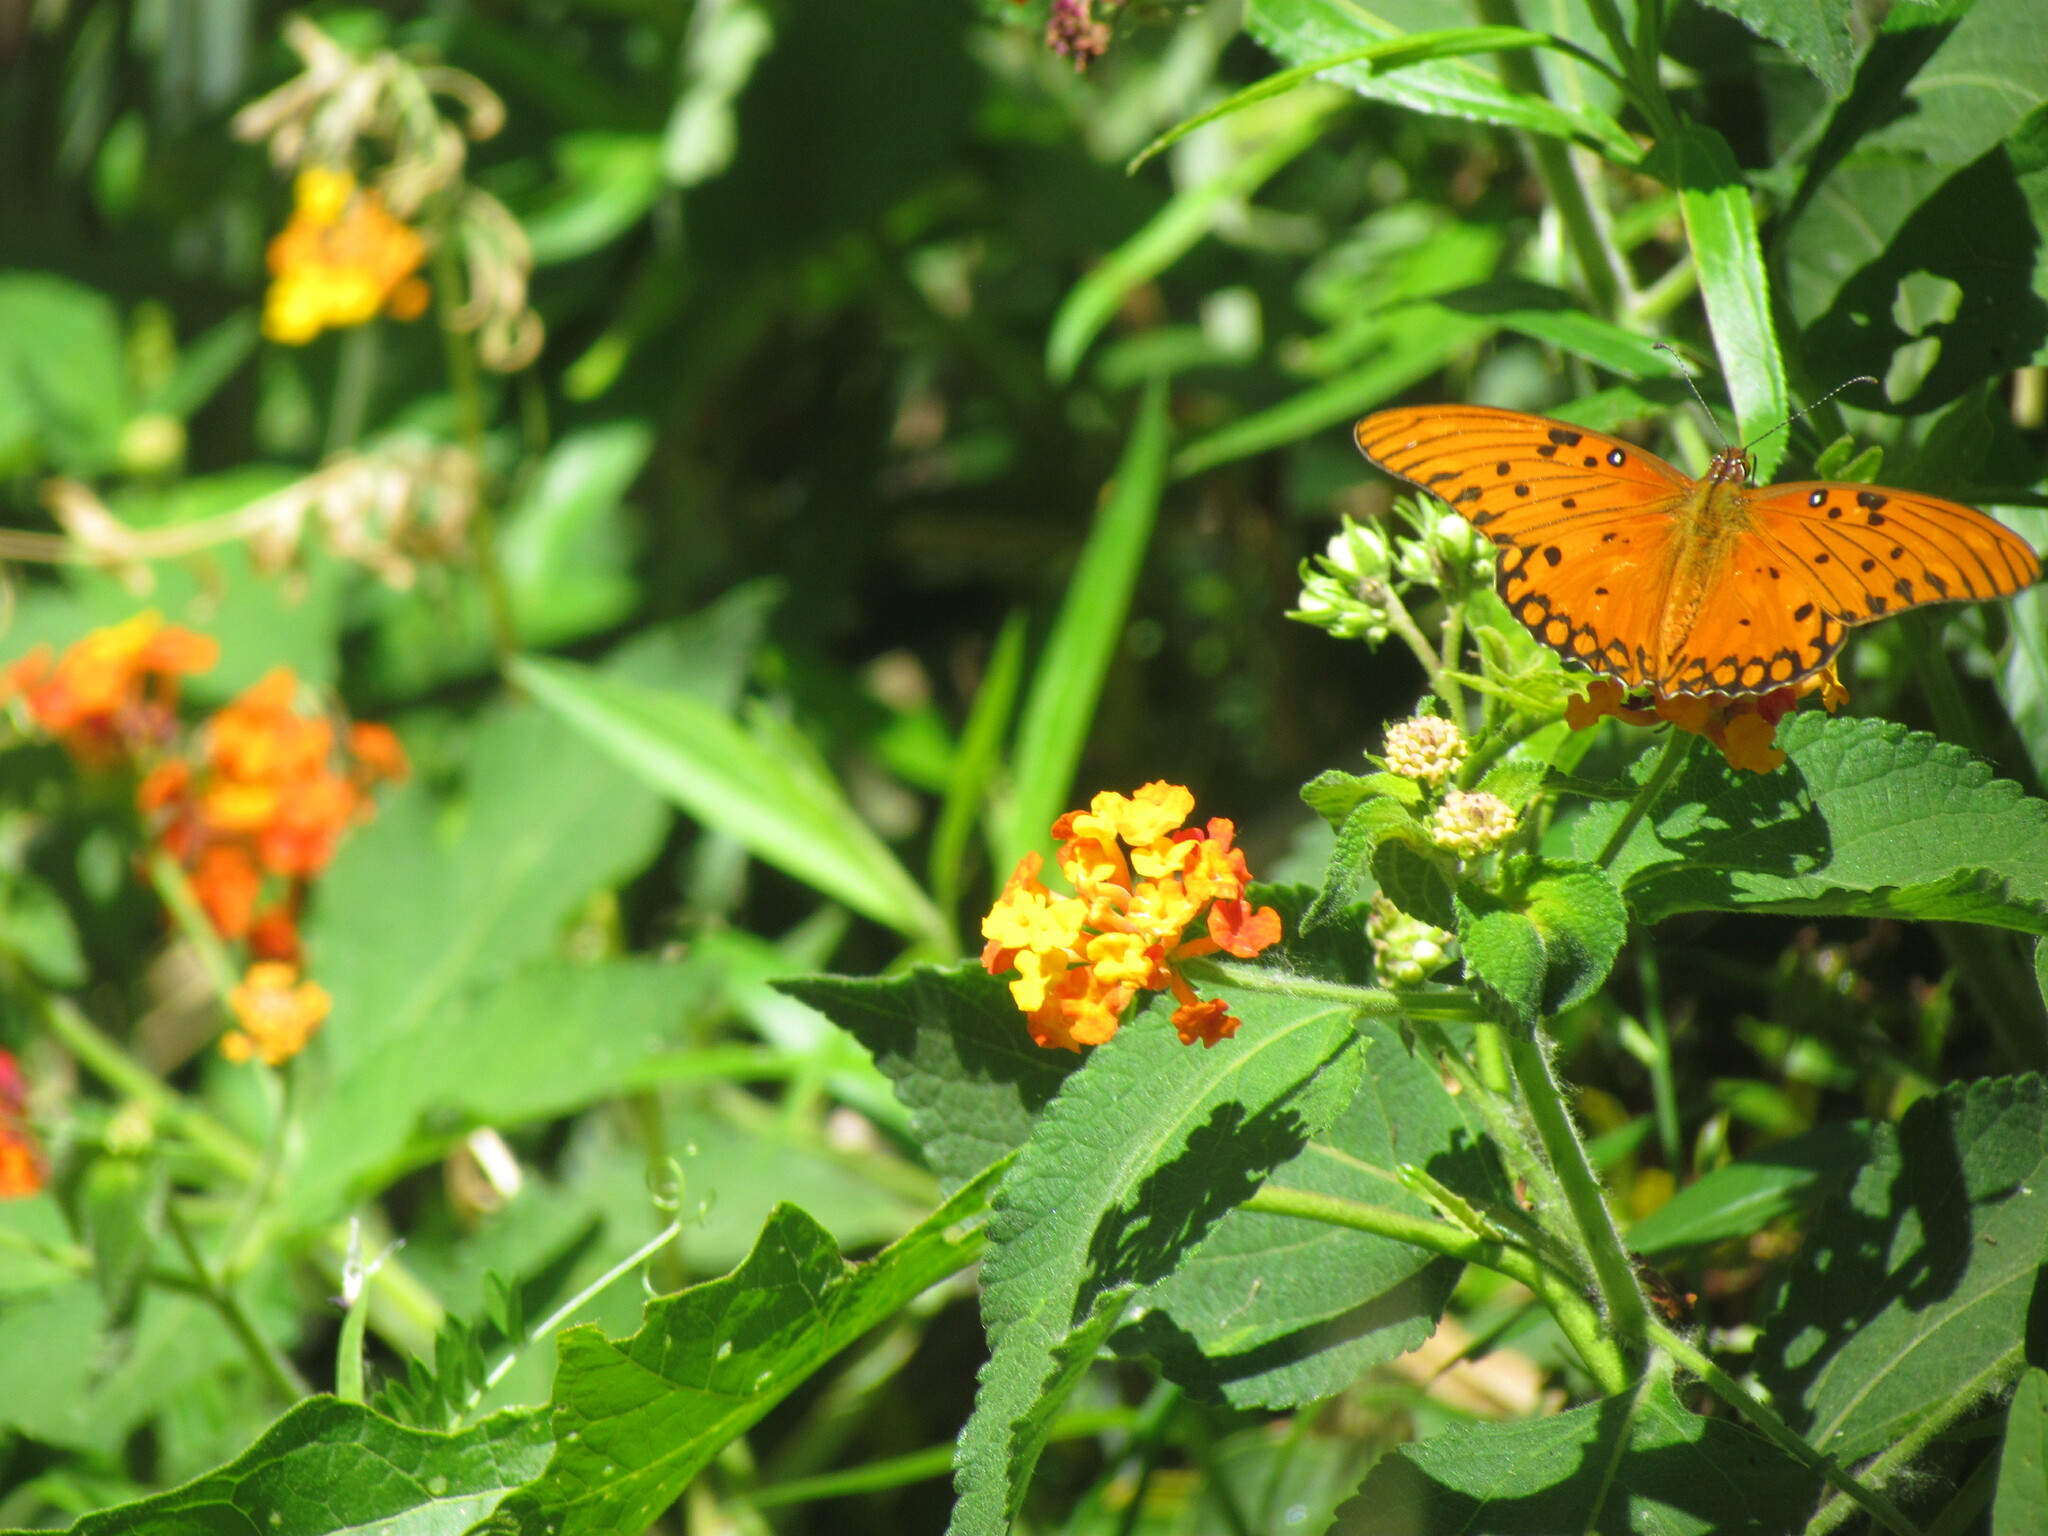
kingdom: Plantae
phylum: Tracheophyta
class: Magnoliopsida
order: Lamiales
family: Verbenaceae
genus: Lantana
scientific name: Lantana camara
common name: Lantana
